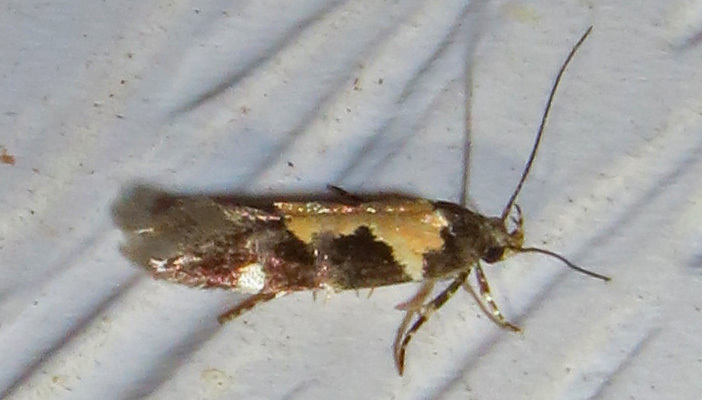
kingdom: Animalia
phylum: Arthropoda
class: Insecta
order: Lepidoptera
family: Gelechiidae
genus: Stegasta
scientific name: Stegasta bosqueella
